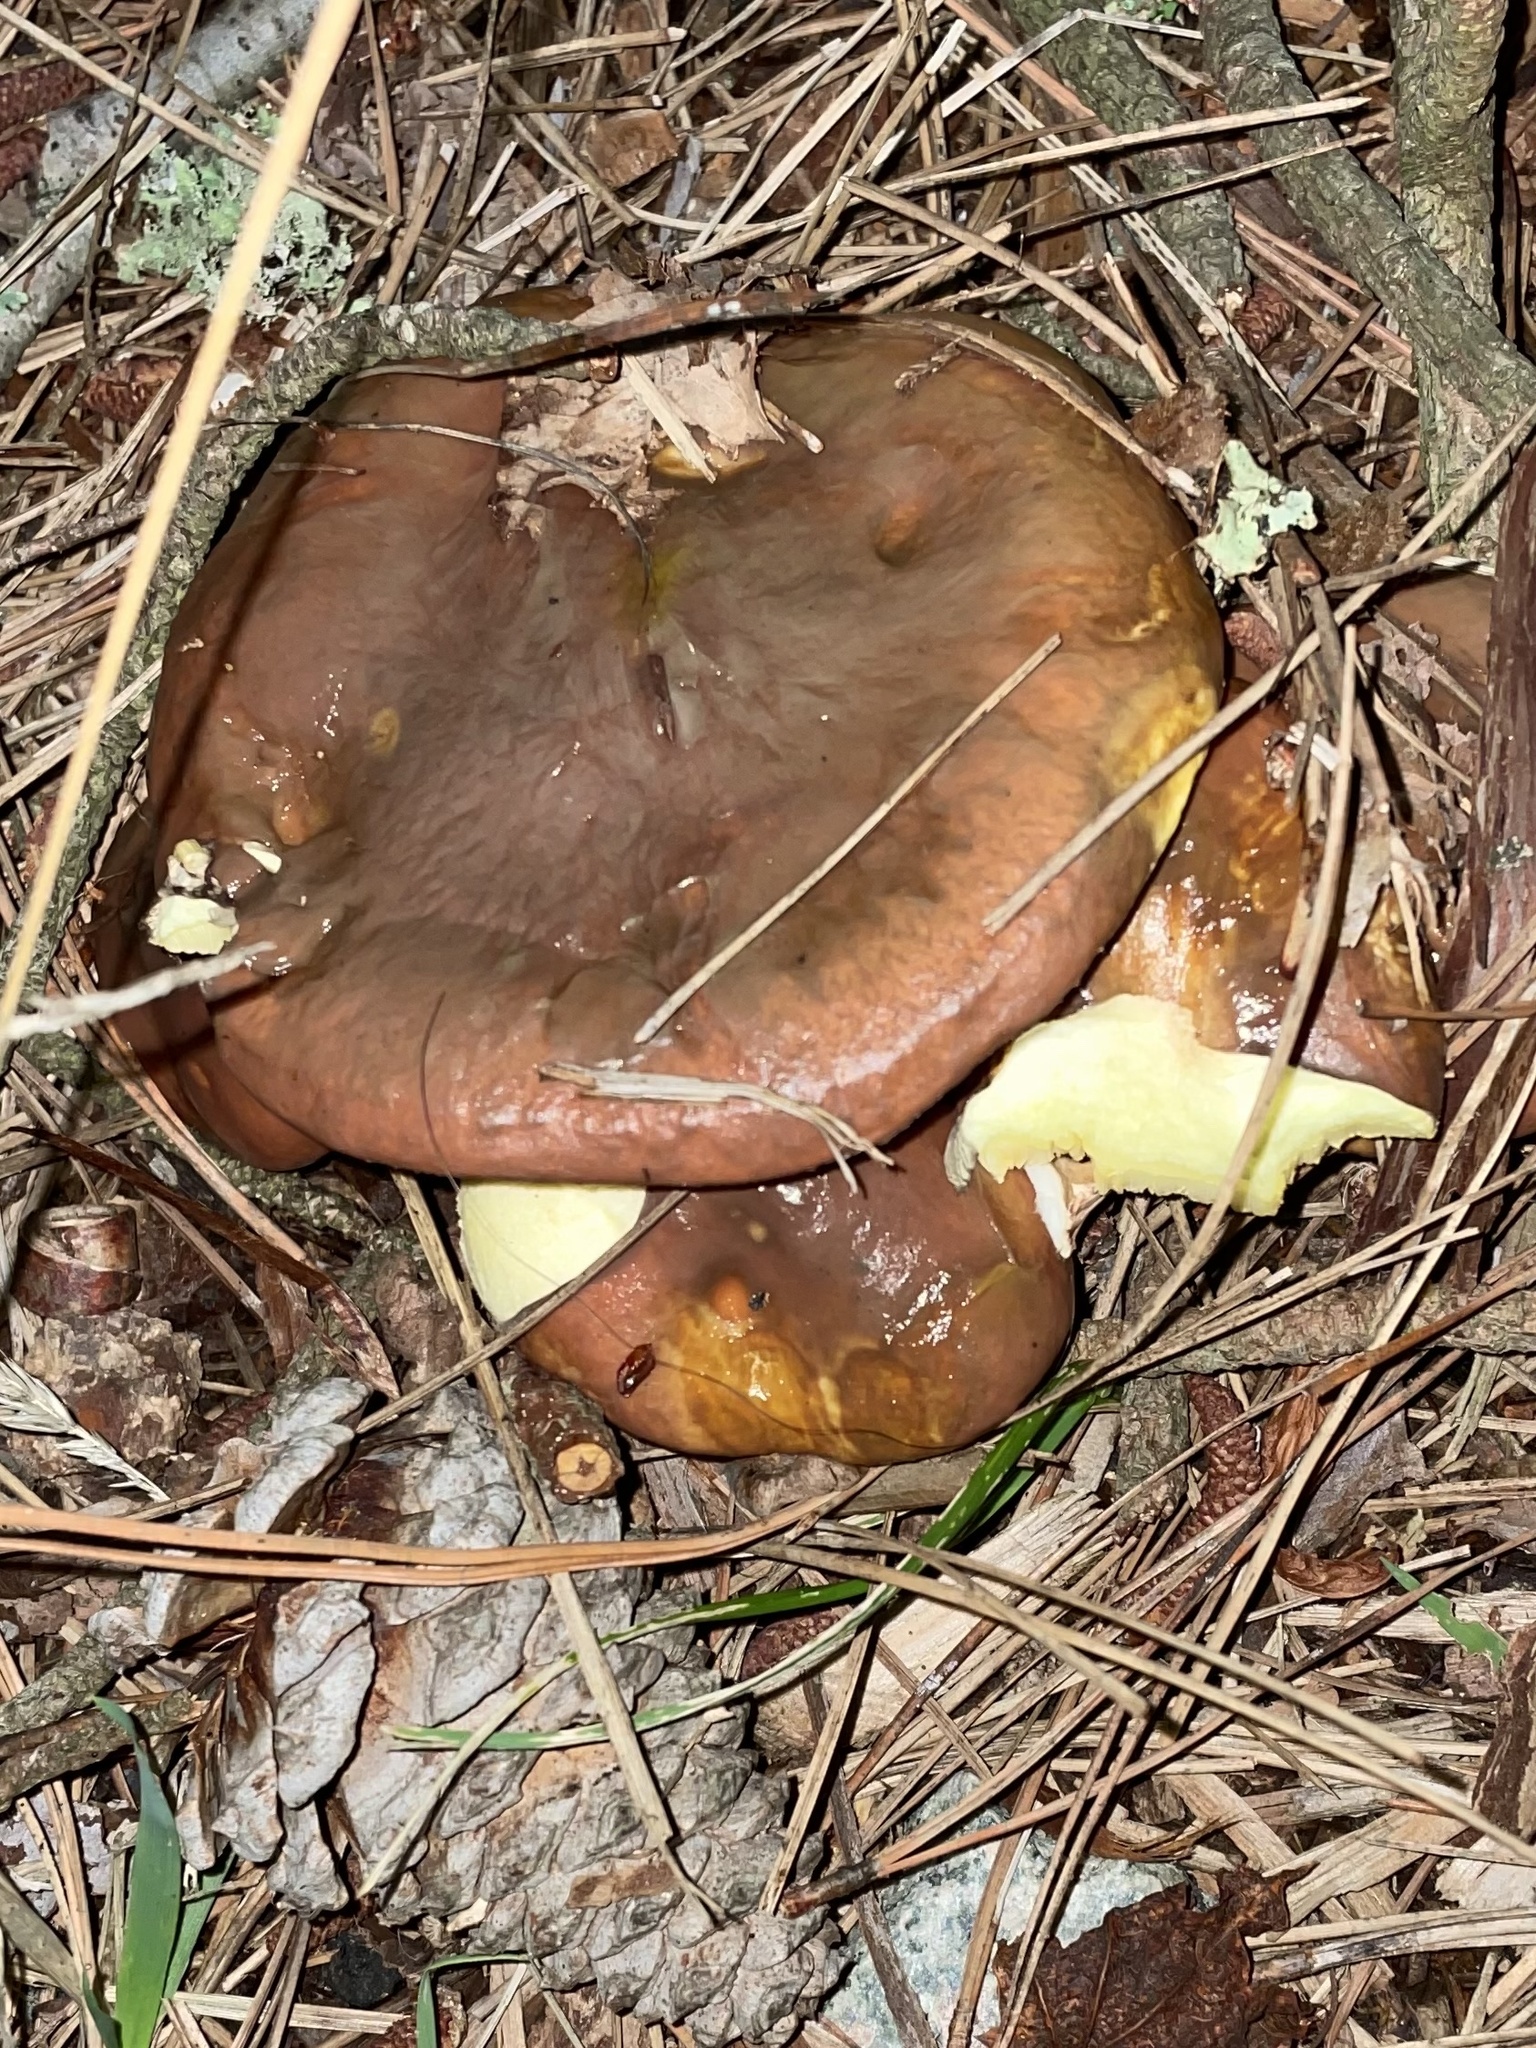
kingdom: Fungi
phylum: Basidiomycota
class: Agaricomycetes
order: Boletales
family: Suillaceae
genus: Suillus
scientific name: Suillus luteus
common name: Slippery jack
